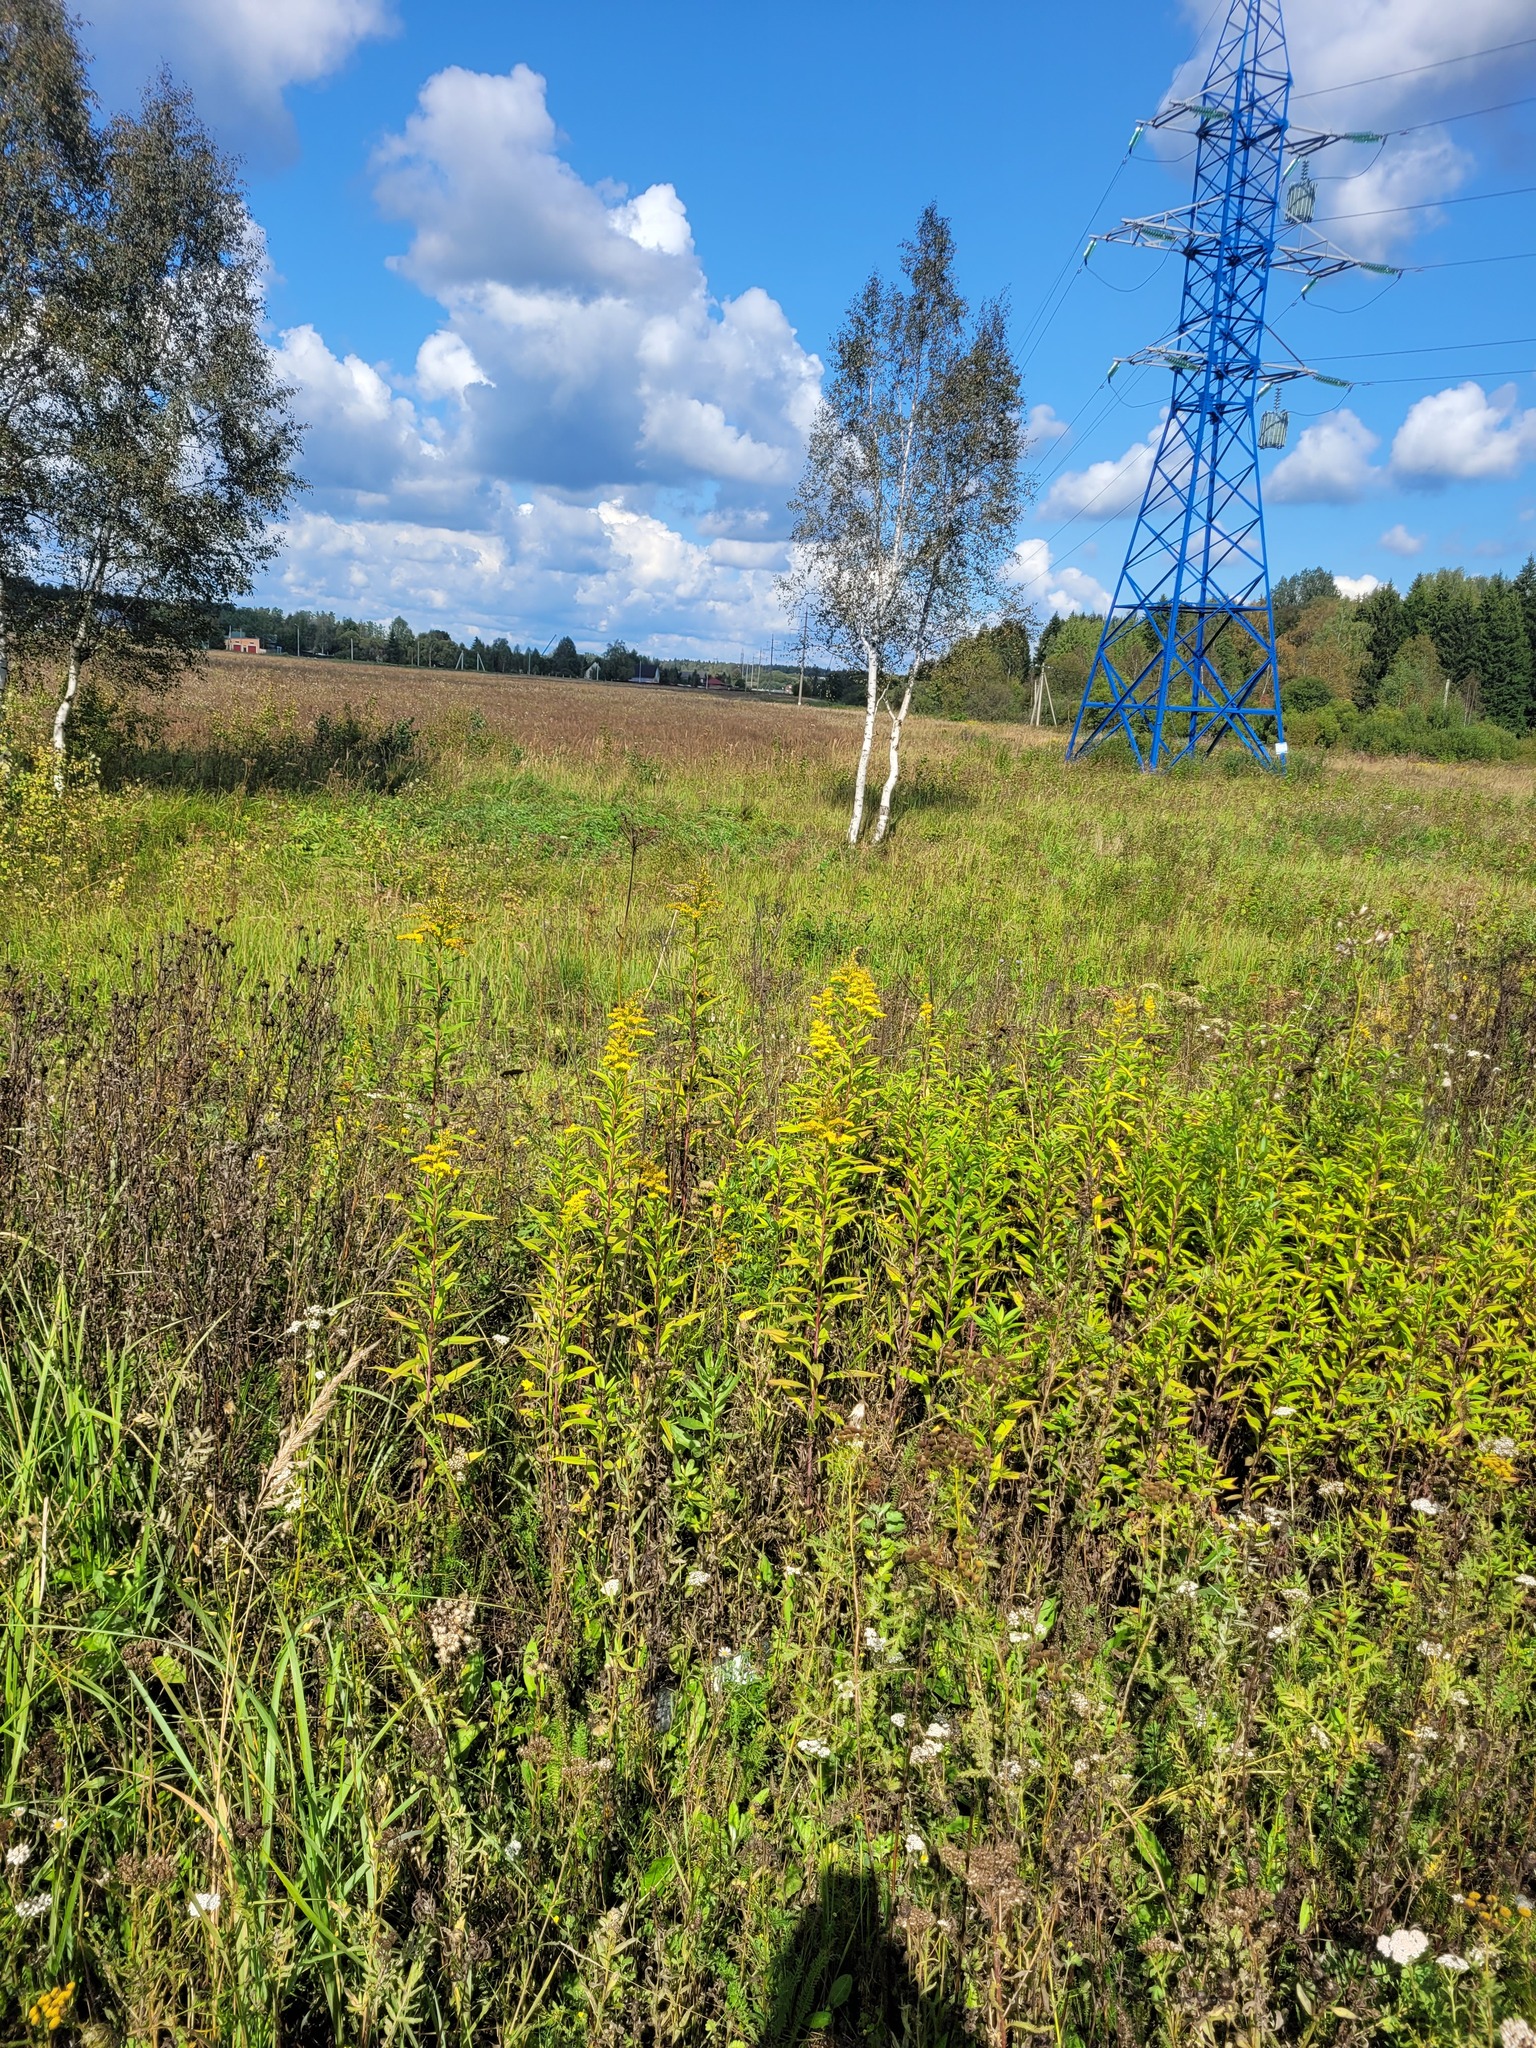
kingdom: Plantae
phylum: Tracheophyta
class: Magnoliopsida
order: Asterales
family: Asteraceae
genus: Solidago
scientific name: Solidago gigantea
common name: Giant goldenrod
